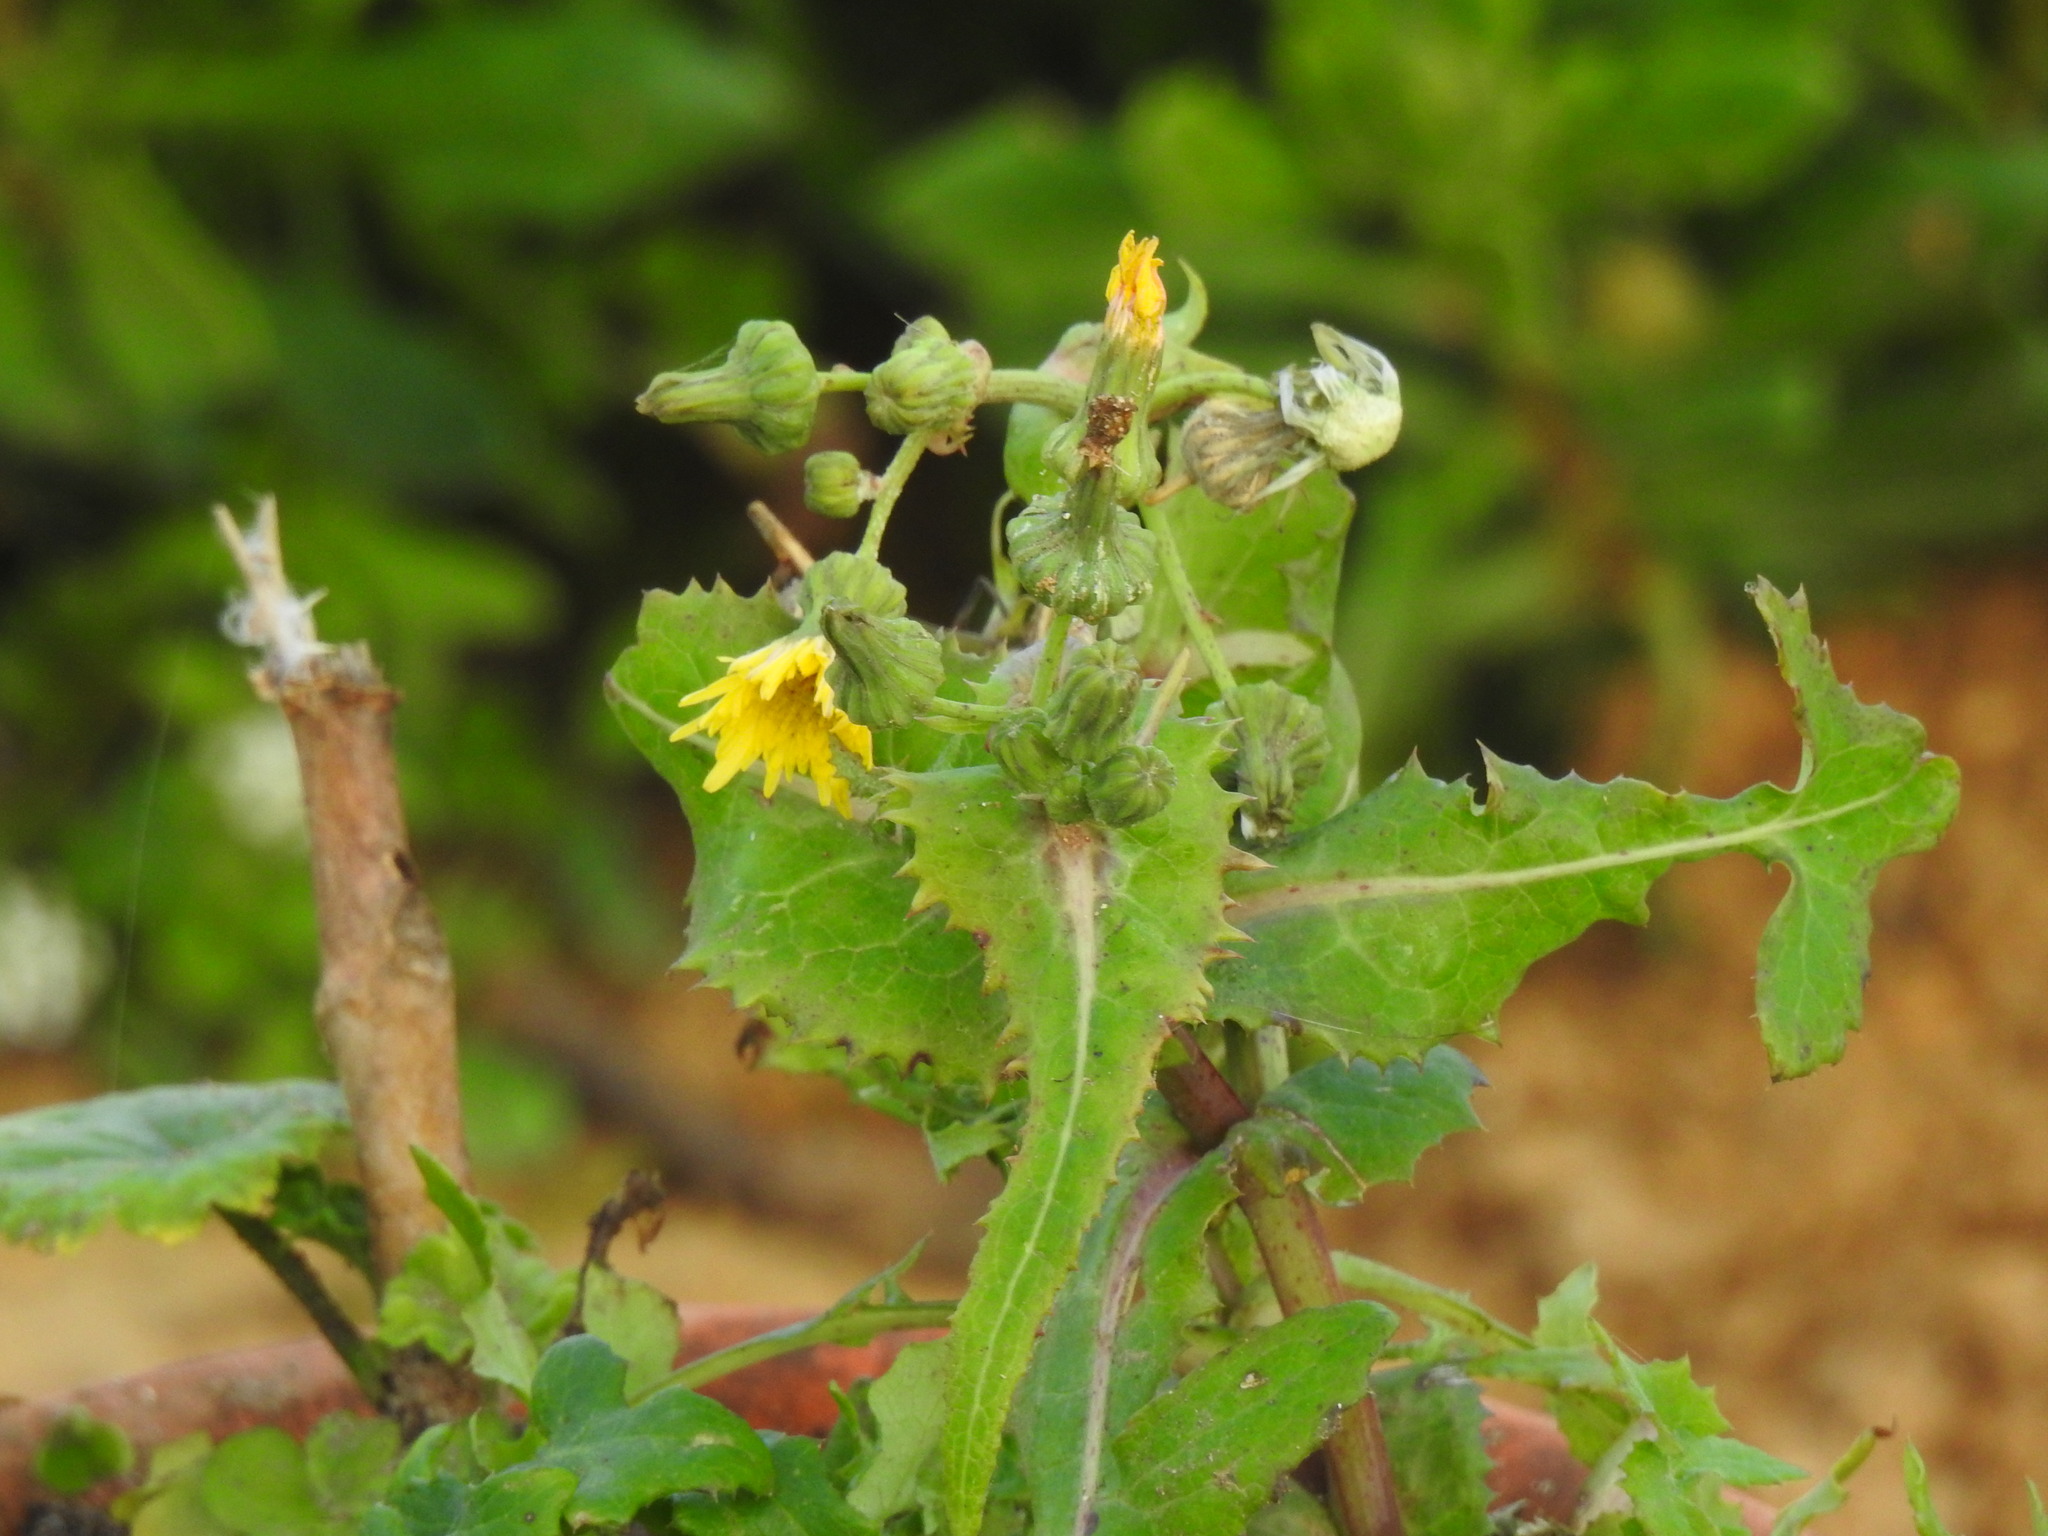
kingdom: Plantae
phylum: Tracheophyta
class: Magnoliopsida
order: Asterales
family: Asteraceae
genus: Sonchus
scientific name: Sonchus oleraceus
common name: Common sowthistle
